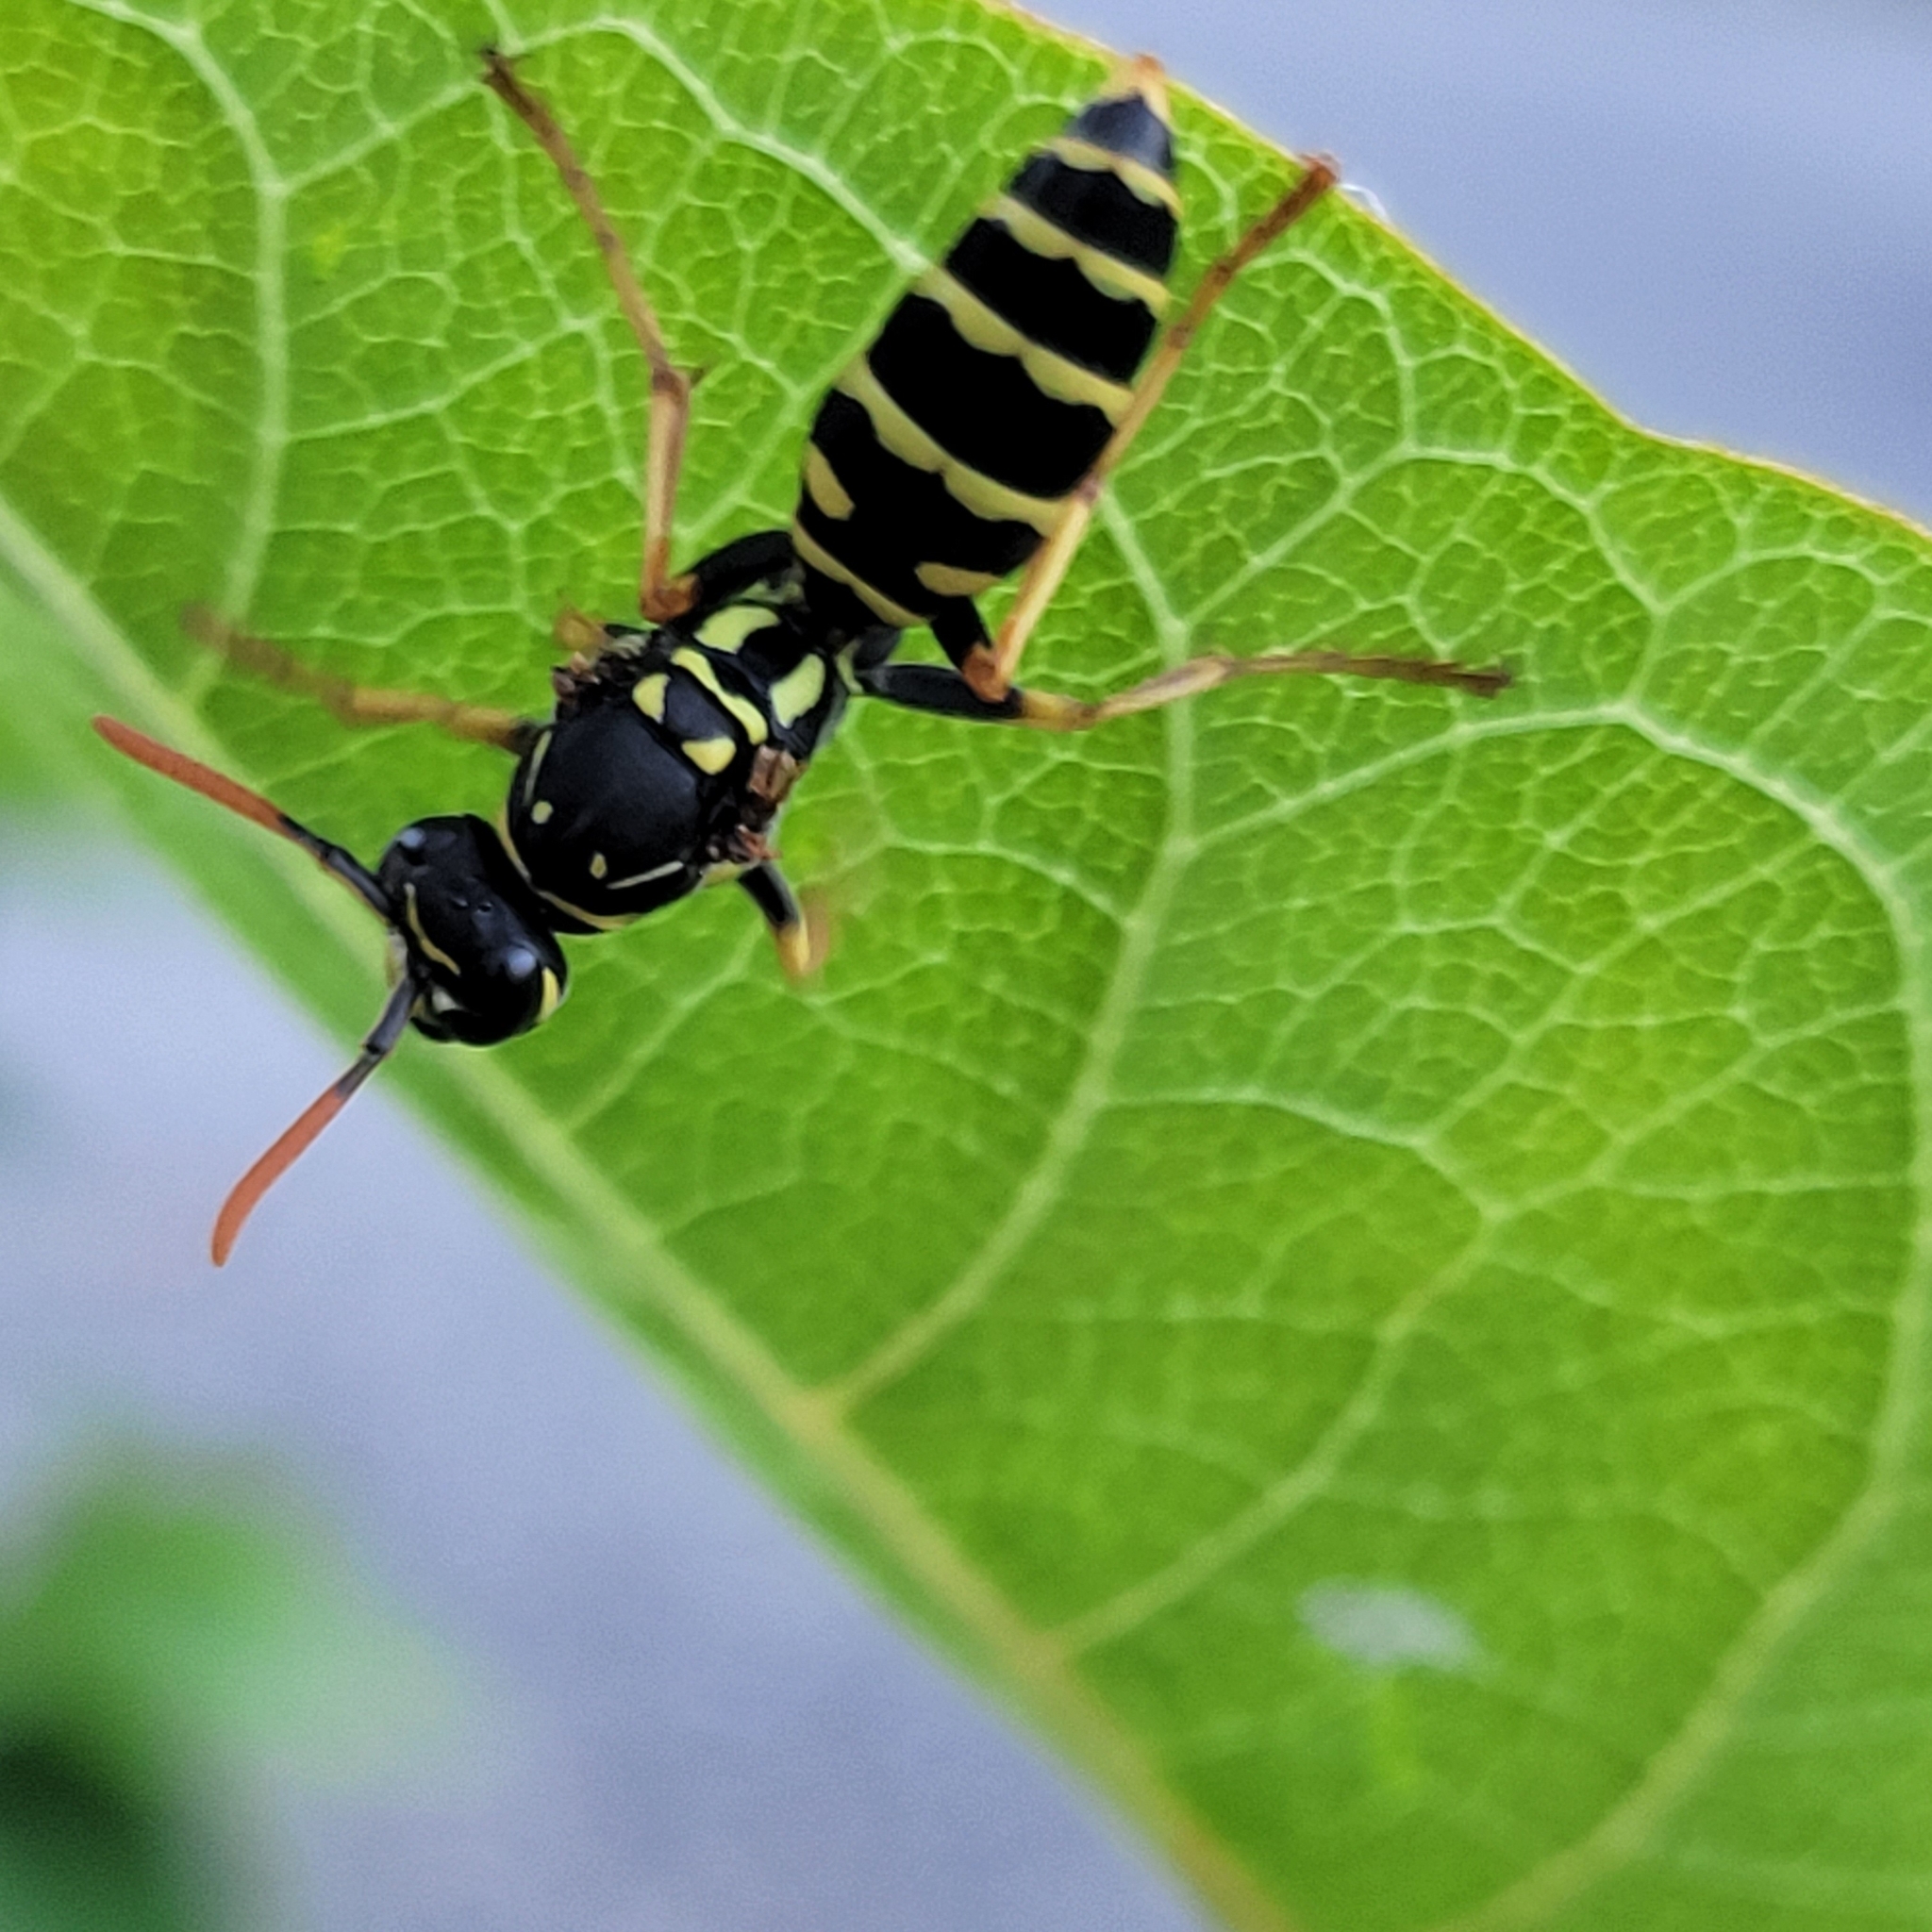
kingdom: Animalia
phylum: Arthropoda
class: Insecta
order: Hymenoptera
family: Eumenidae
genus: Polistes
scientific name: Polistes dominula
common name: Paper wasp
